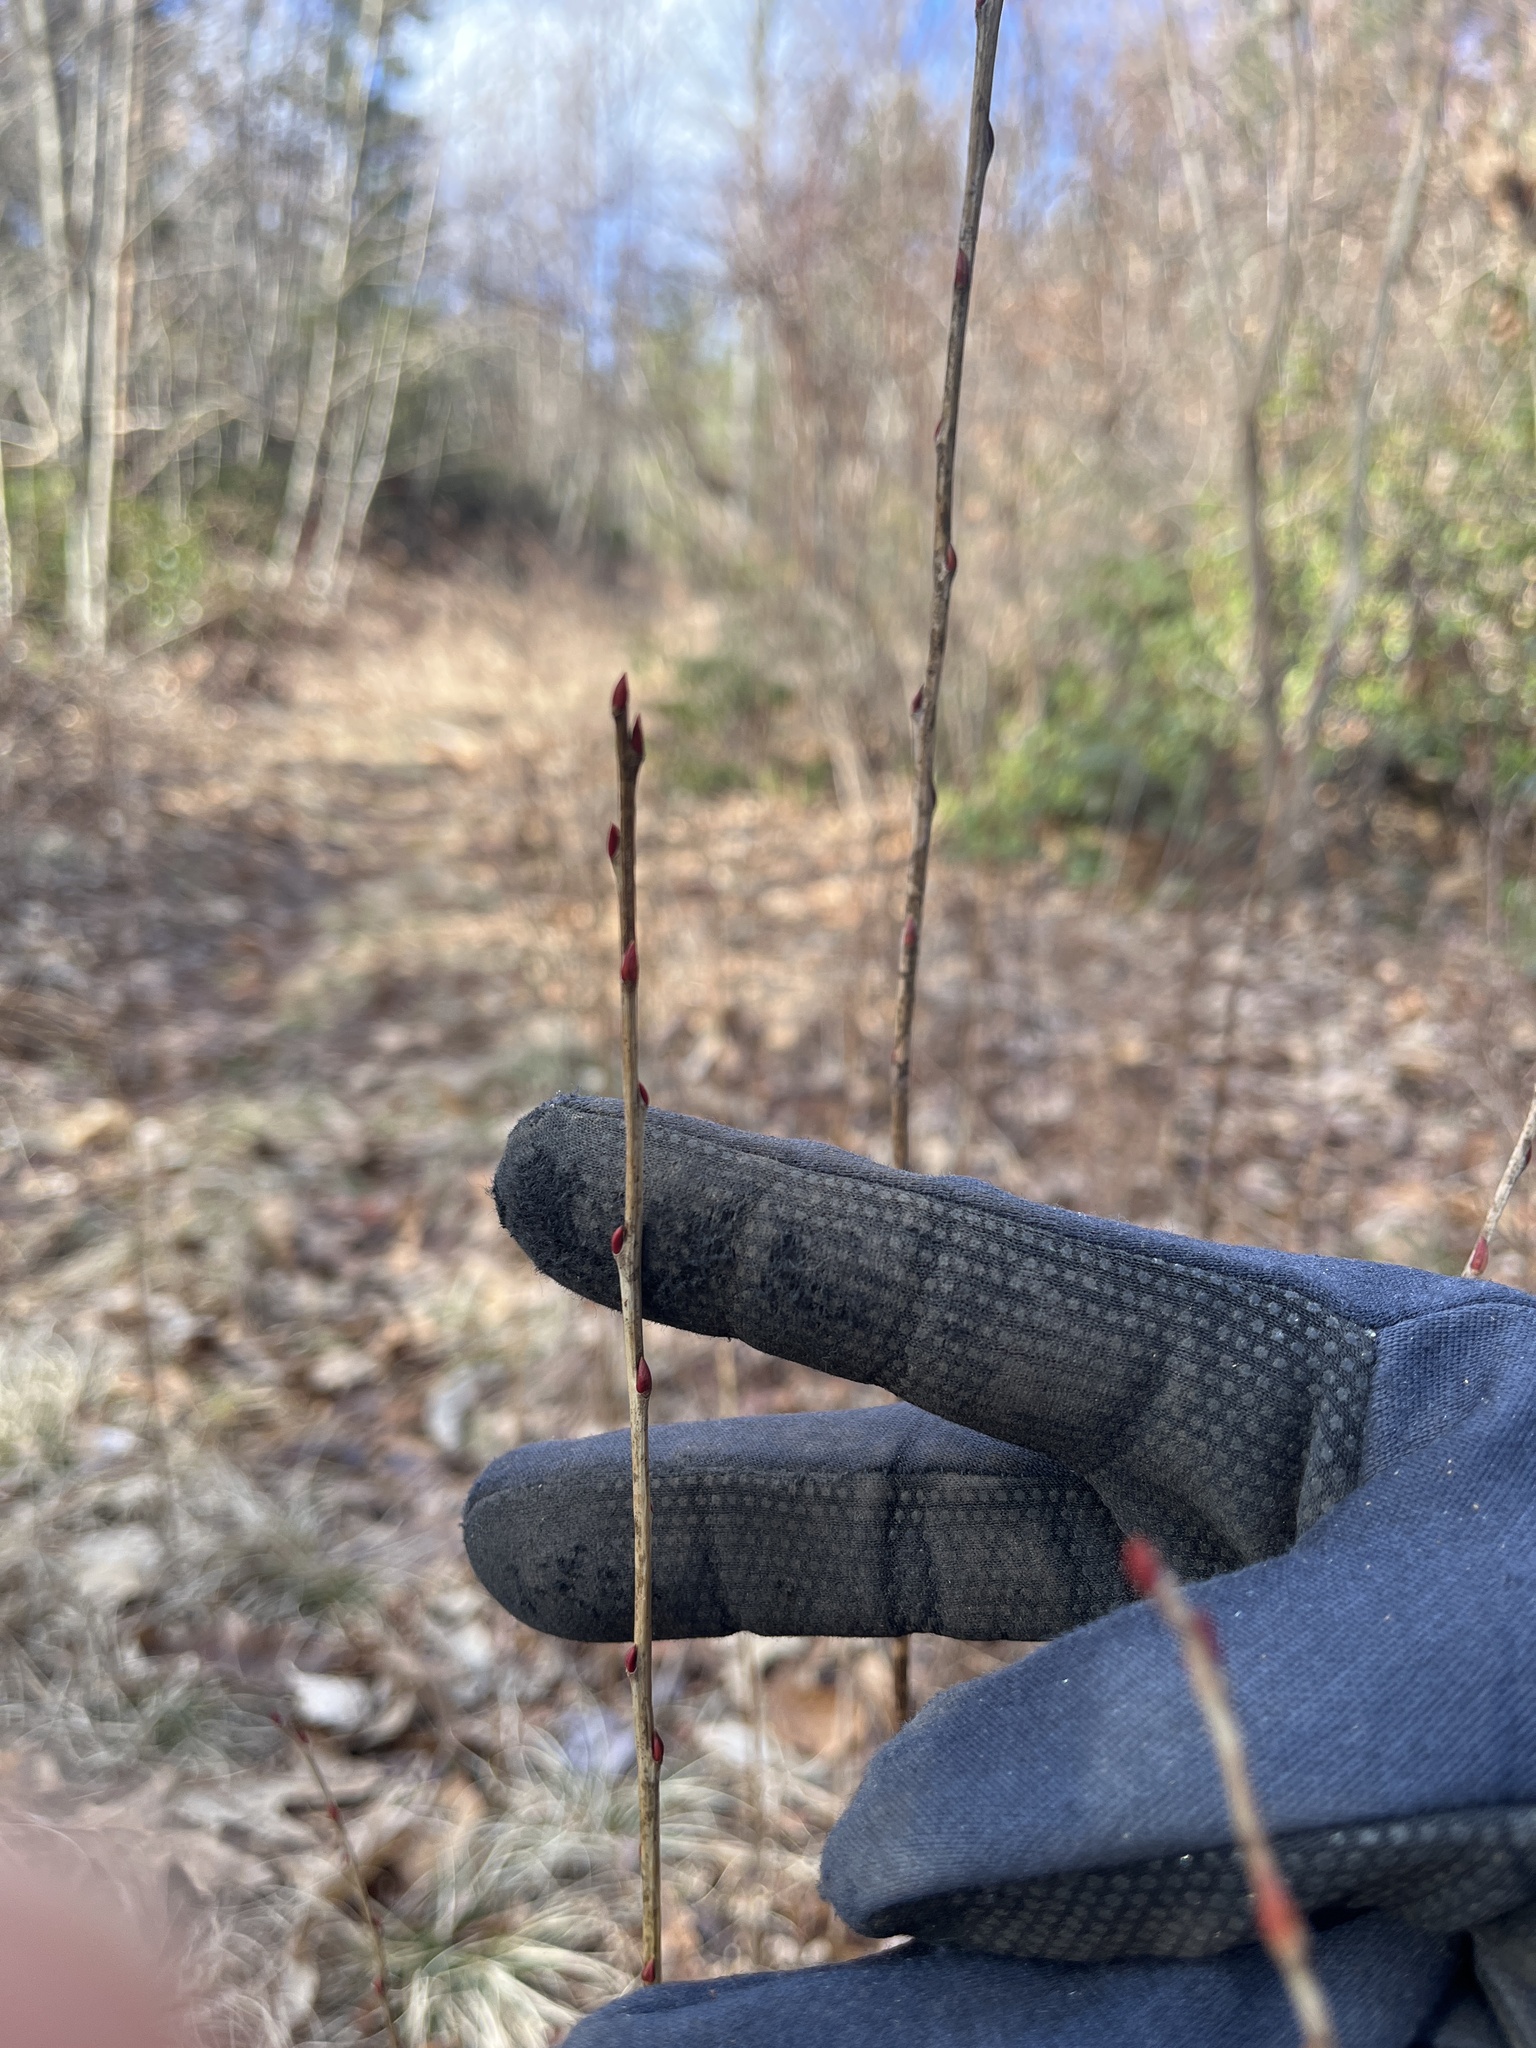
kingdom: Plantae
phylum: Tracheophyta
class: Magnoliopsida
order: Ericales
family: Ericaceae
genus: Lyonia
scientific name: Lyonia ligustrina
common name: Maleberry
